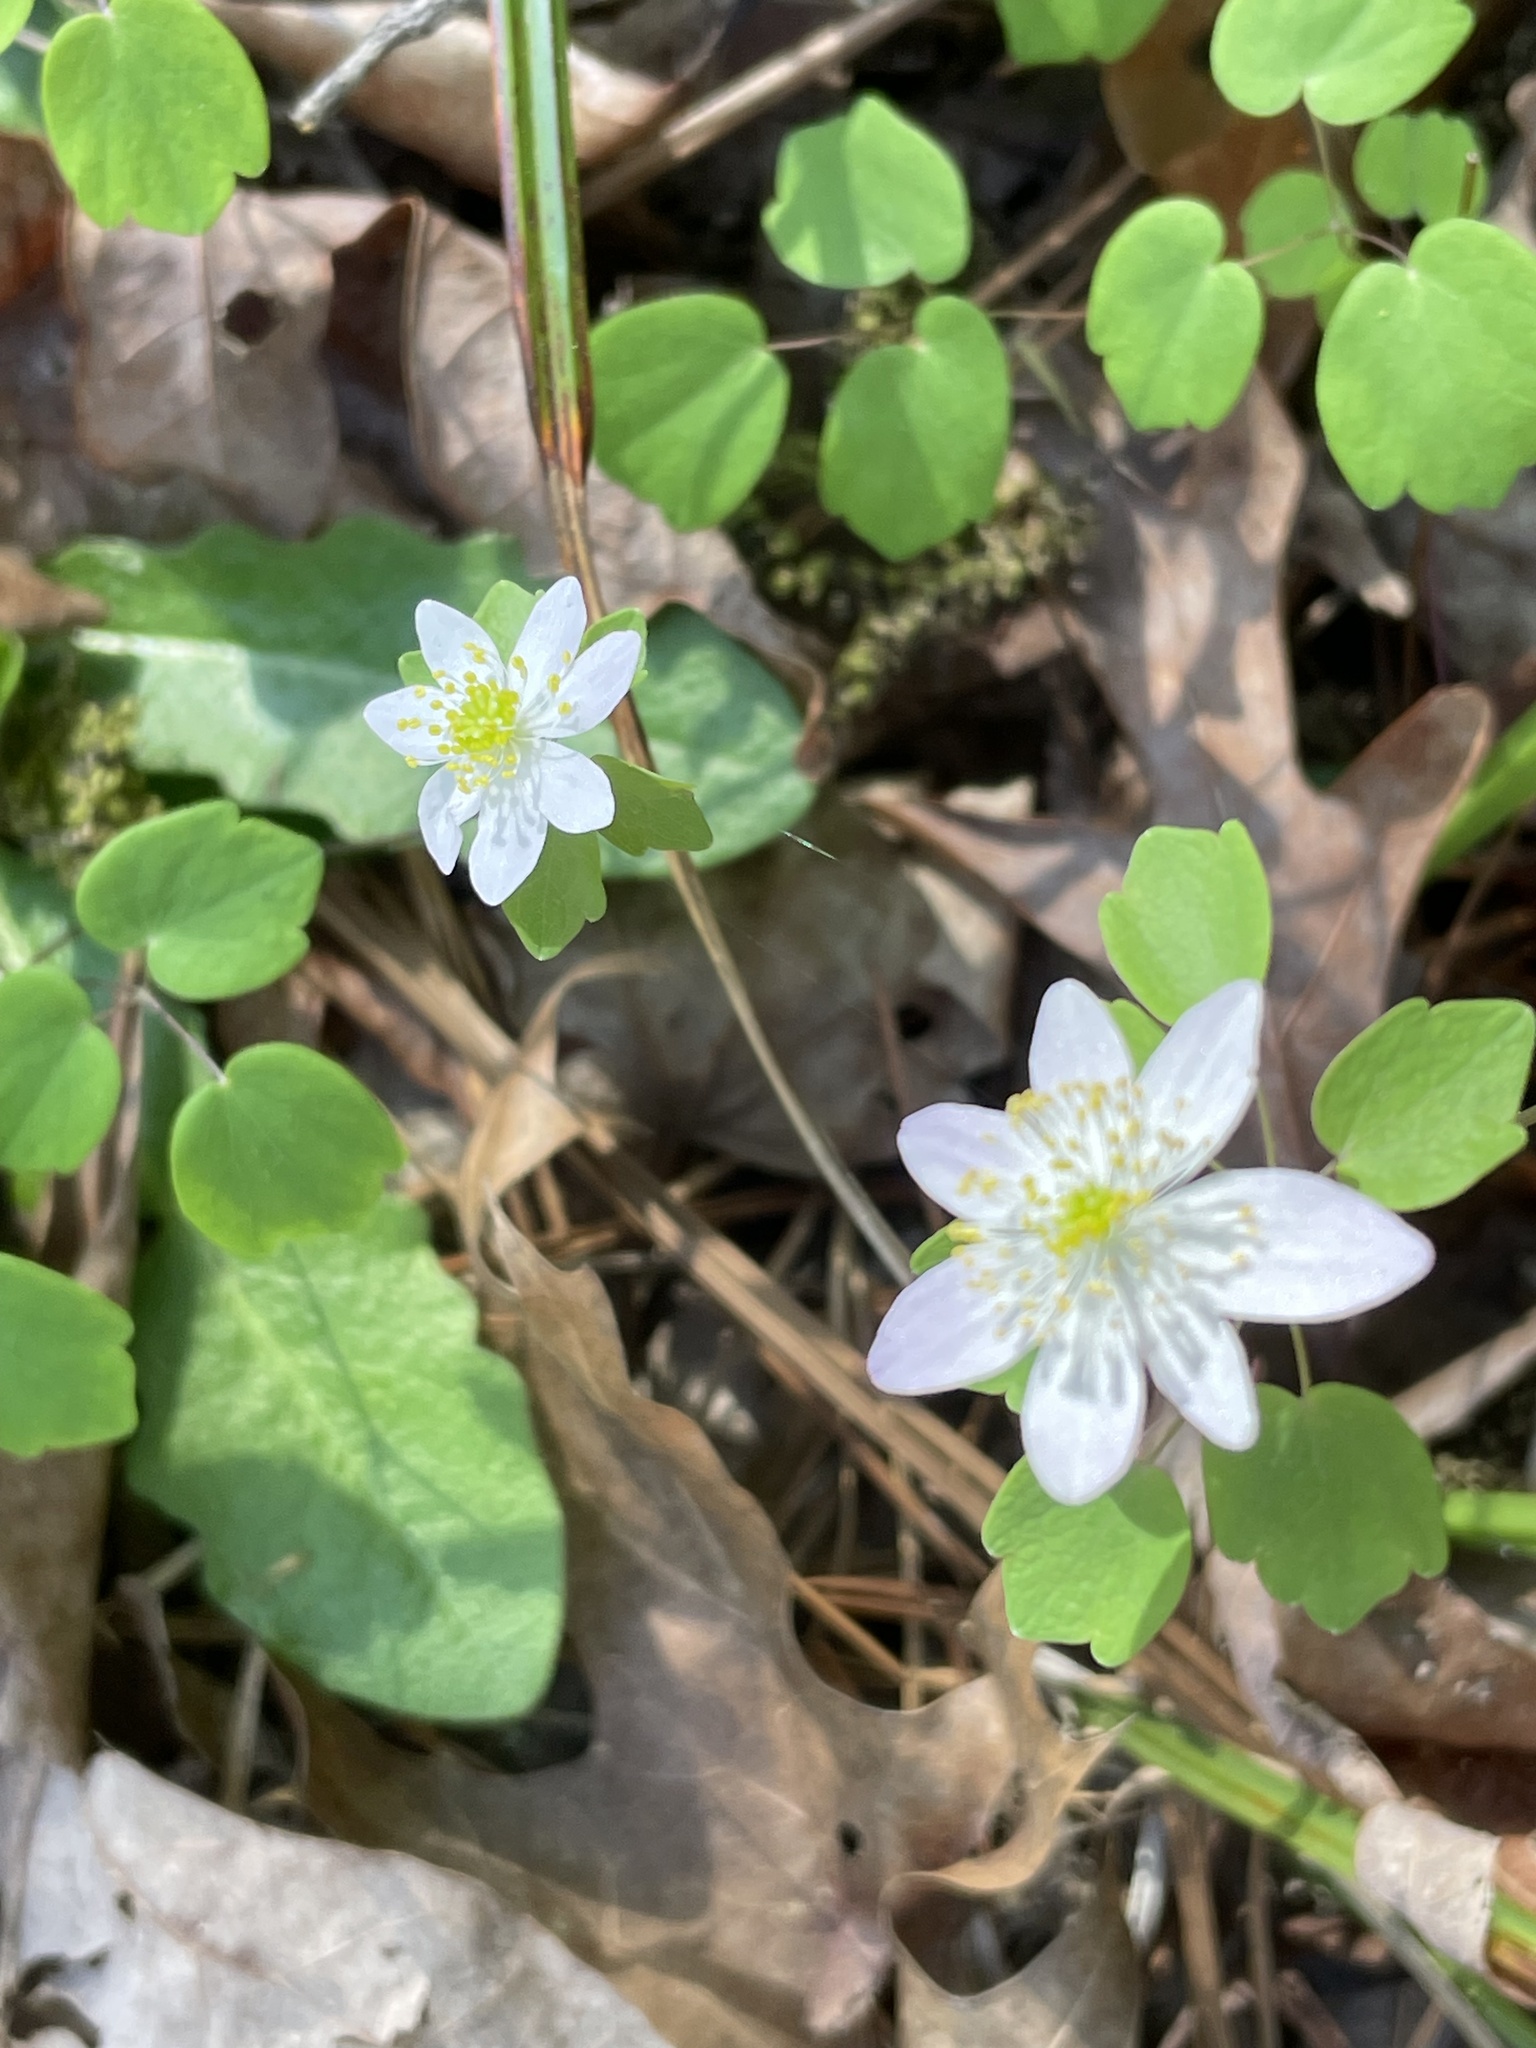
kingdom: Plantae
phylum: Tracheophyta
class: Magnoliopsida
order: Ranunculales
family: Ranunculaceae
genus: Thalictrum
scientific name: Thalictrum thalictroides
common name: Rue-anemone
